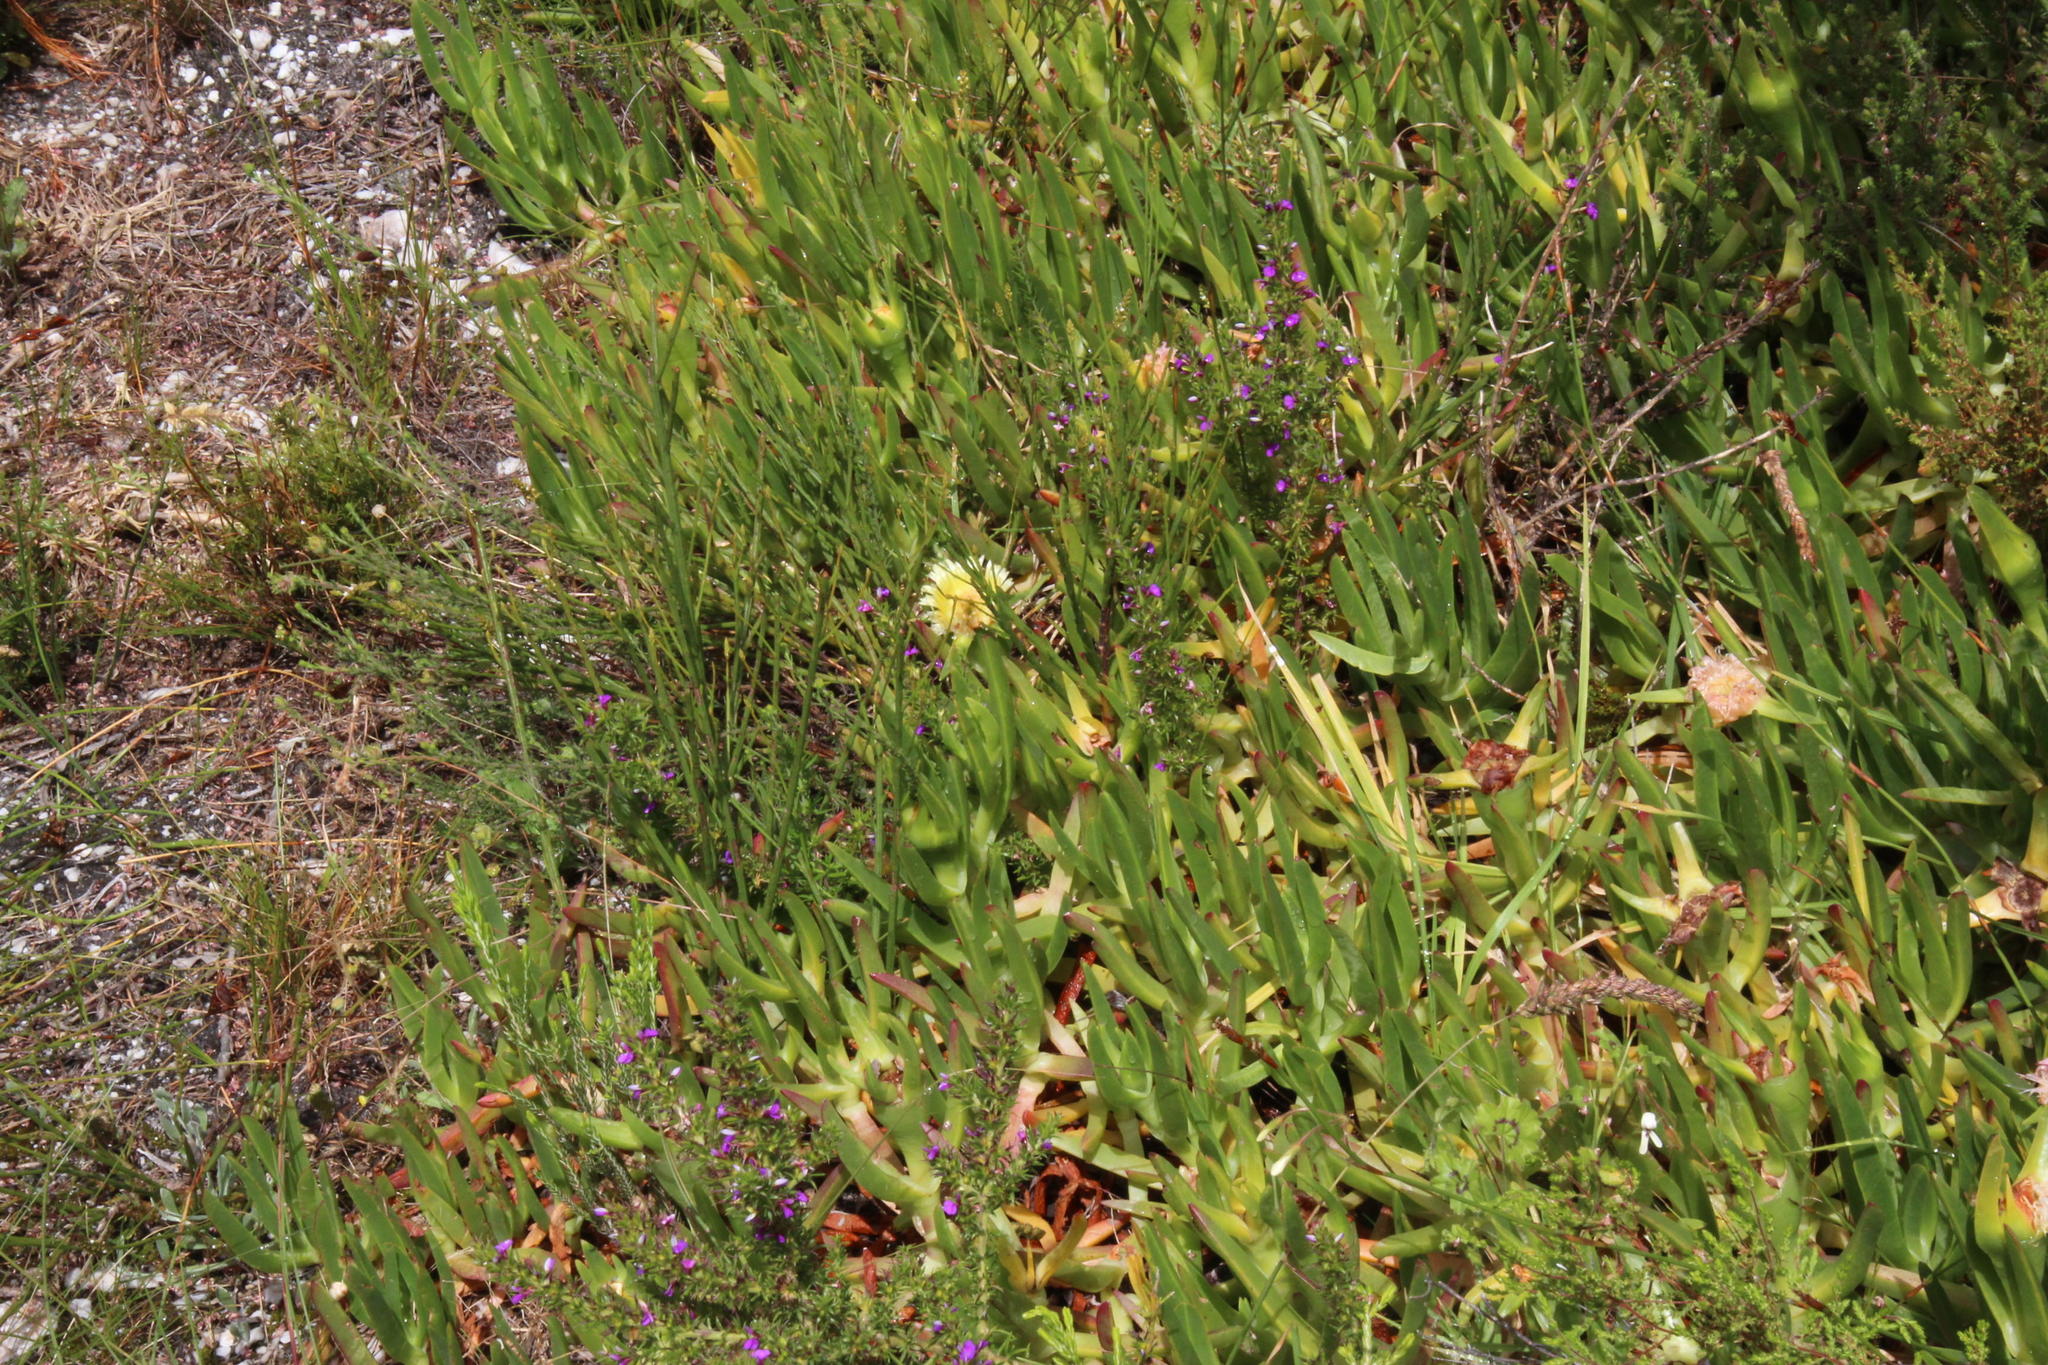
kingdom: Plantae
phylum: Tracheophyta
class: Magnoliopsida
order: Caryophyllales
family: Aizoaceae
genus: Carpobrotus
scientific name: Carpobrotus edulis
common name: Hottentot-fig
